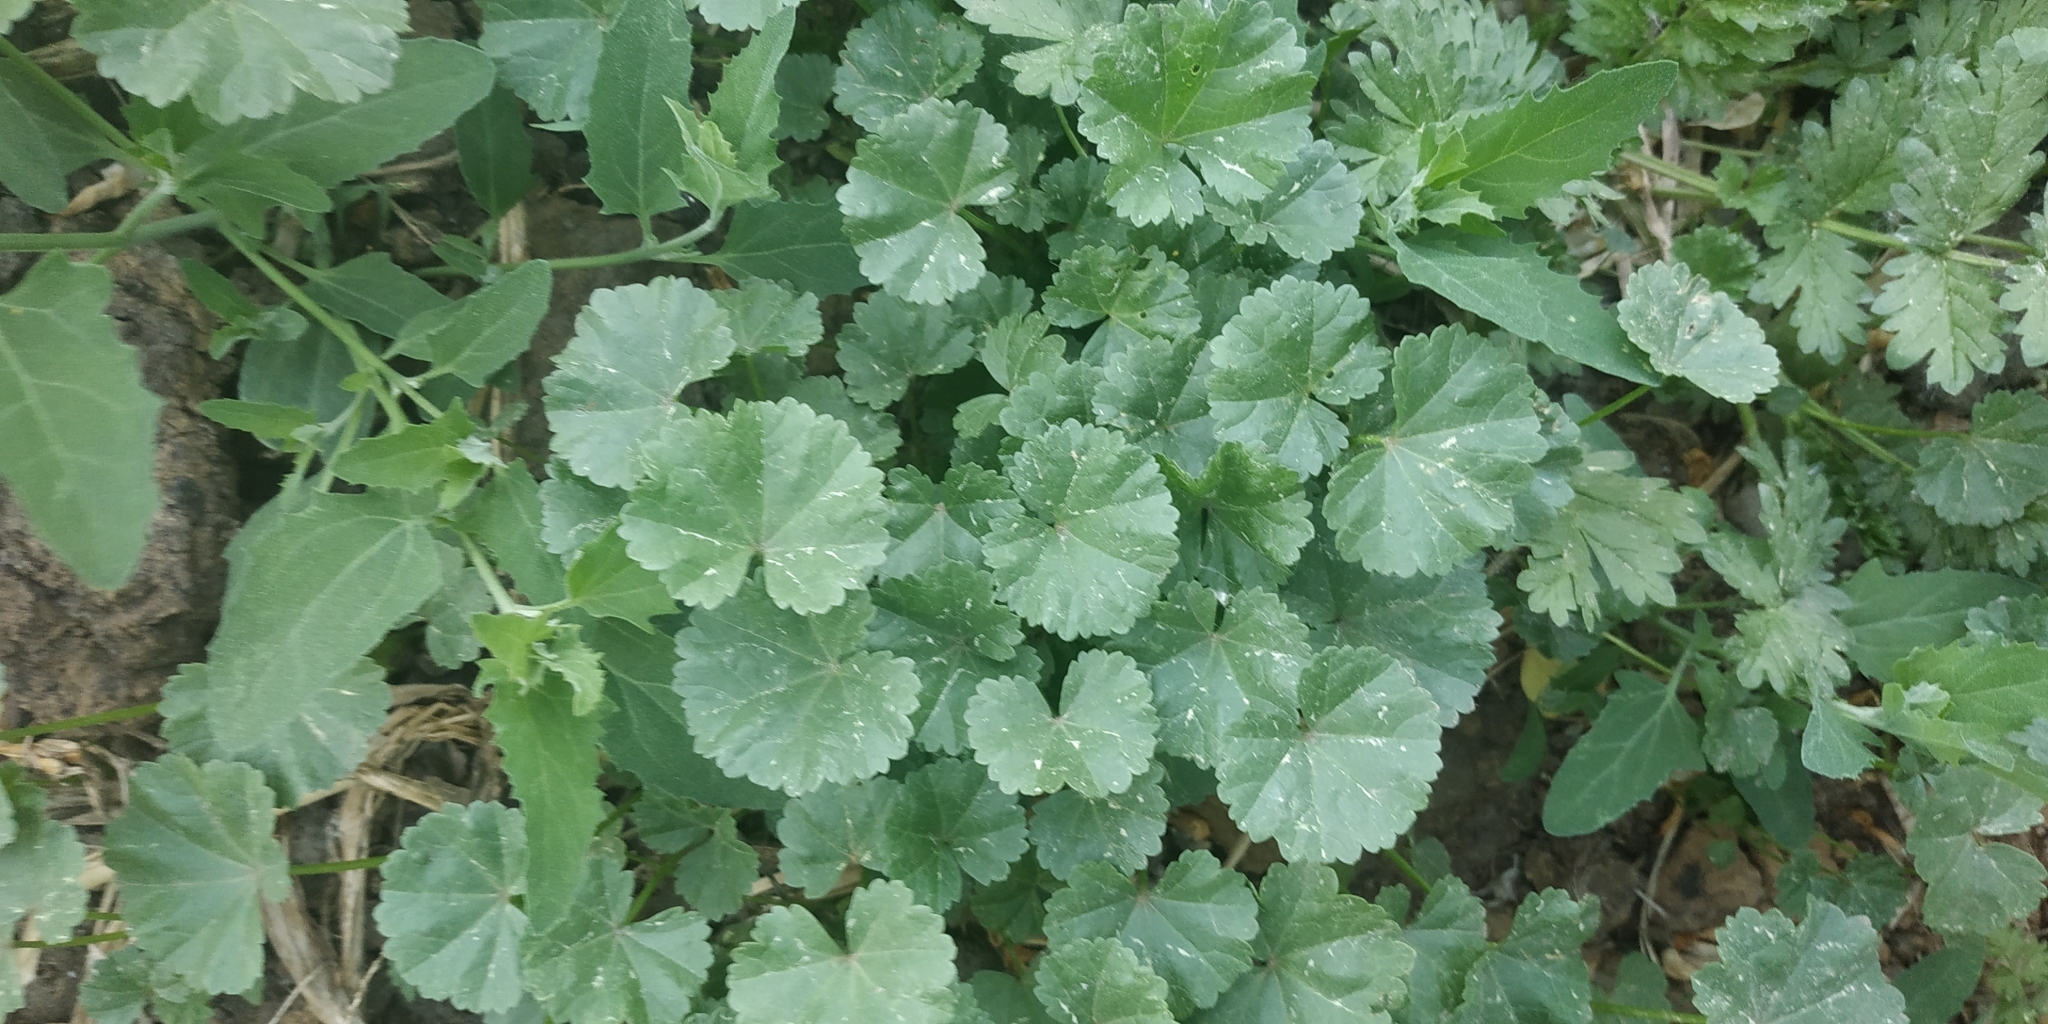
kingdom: Plantae
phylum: Tracheophyta
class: Magnoliopsida
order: Malvales
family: Malvaceae
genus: Malva
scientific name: Malva pusilla
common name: Small mallow
